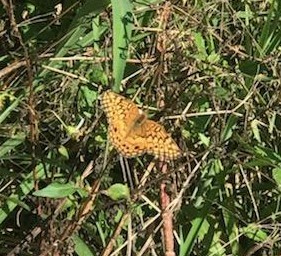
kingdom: Animalia
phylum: Arthropoda
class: Insecta
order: Lepidoptera
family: Nymphalidae
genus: Euptoieta
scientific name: Euptoieta claudia
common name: Variegated fritillary
